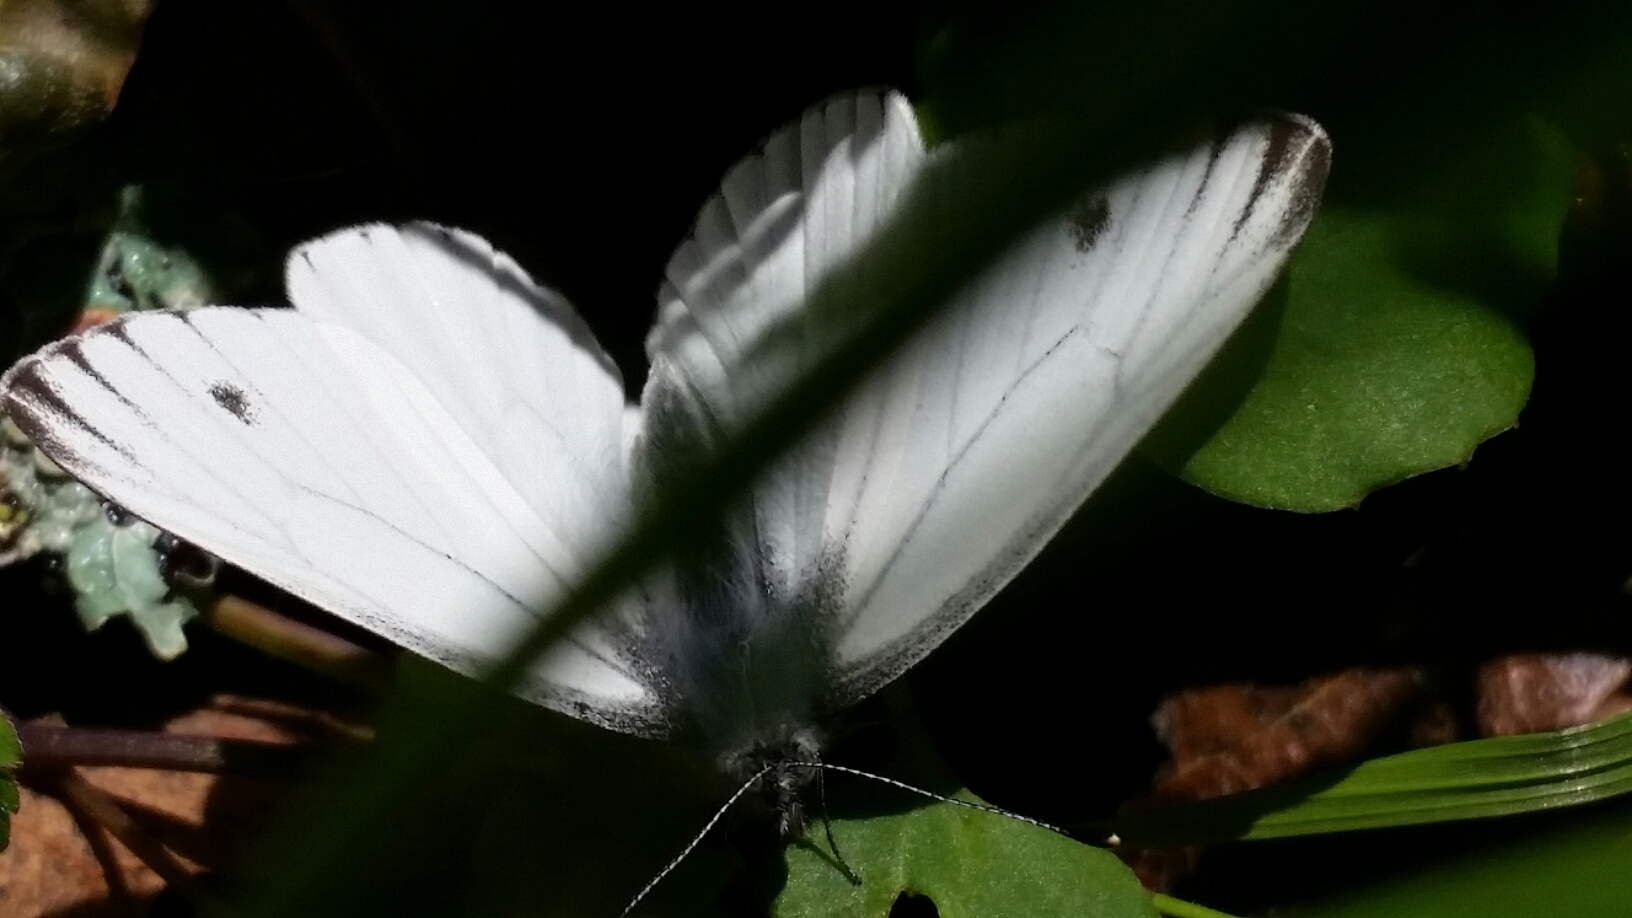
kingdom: Animalia
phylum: Arthropoda
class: Insecta
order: Lepidoptera
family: Pieridae
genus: Pieris
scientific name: Pieris marginalis
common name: Margined white
